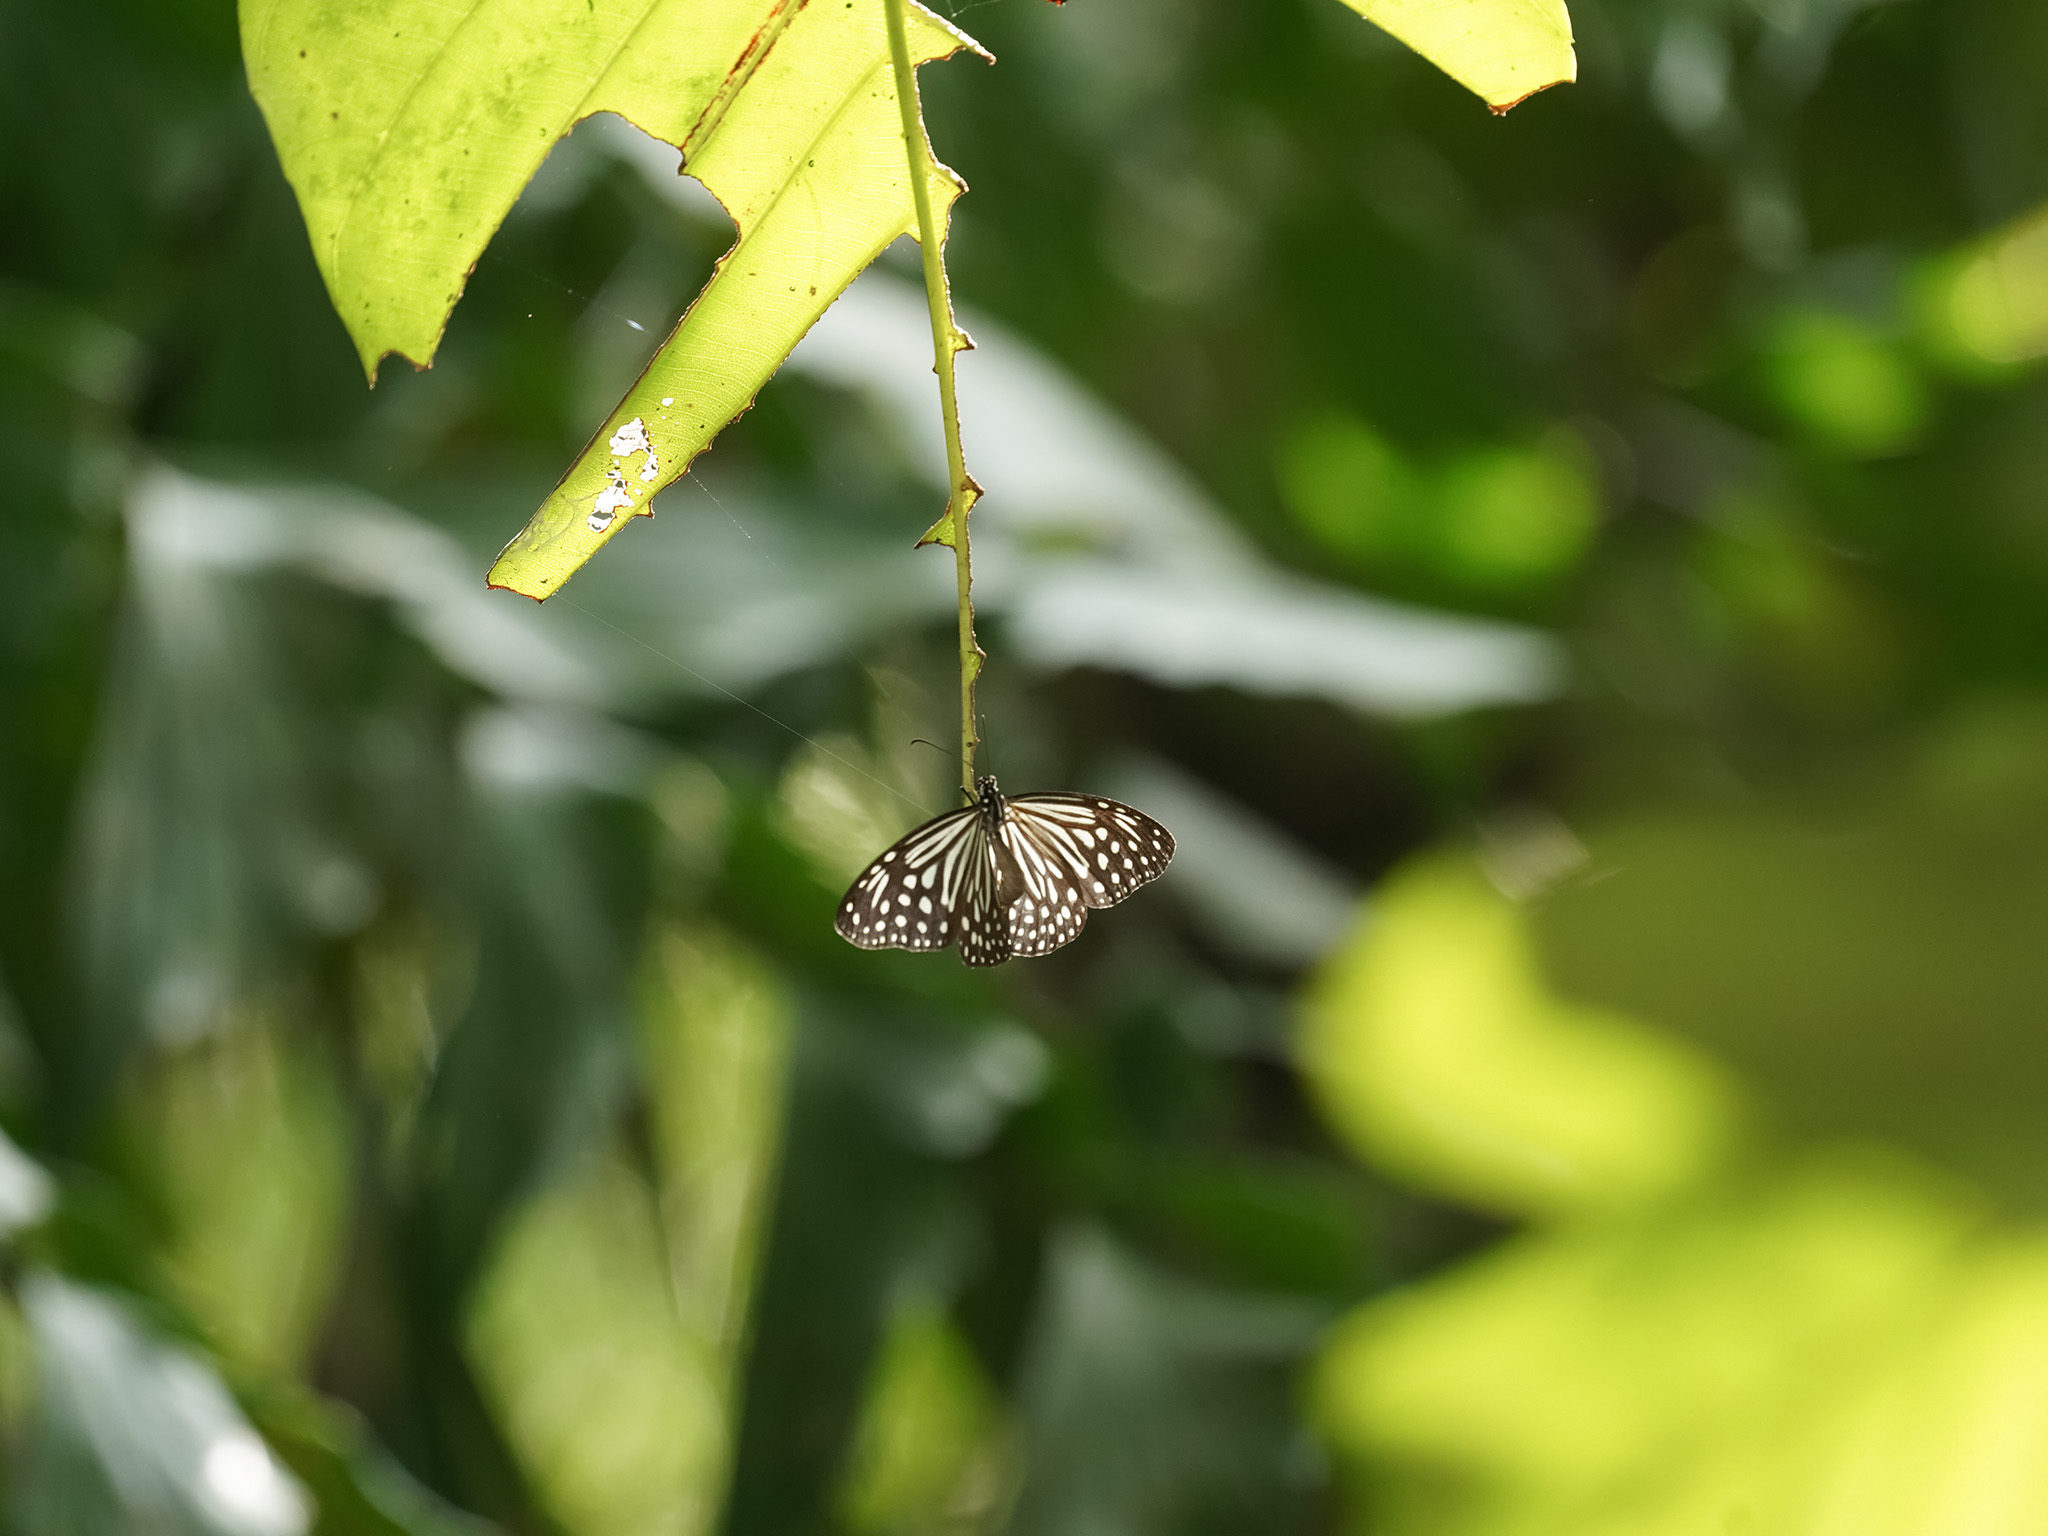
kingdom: Animalia
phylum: Arthropoda
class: Insecta
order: Lepidoptera
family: Nymphalidae
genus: Parantica
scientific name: Parantica agleoides
